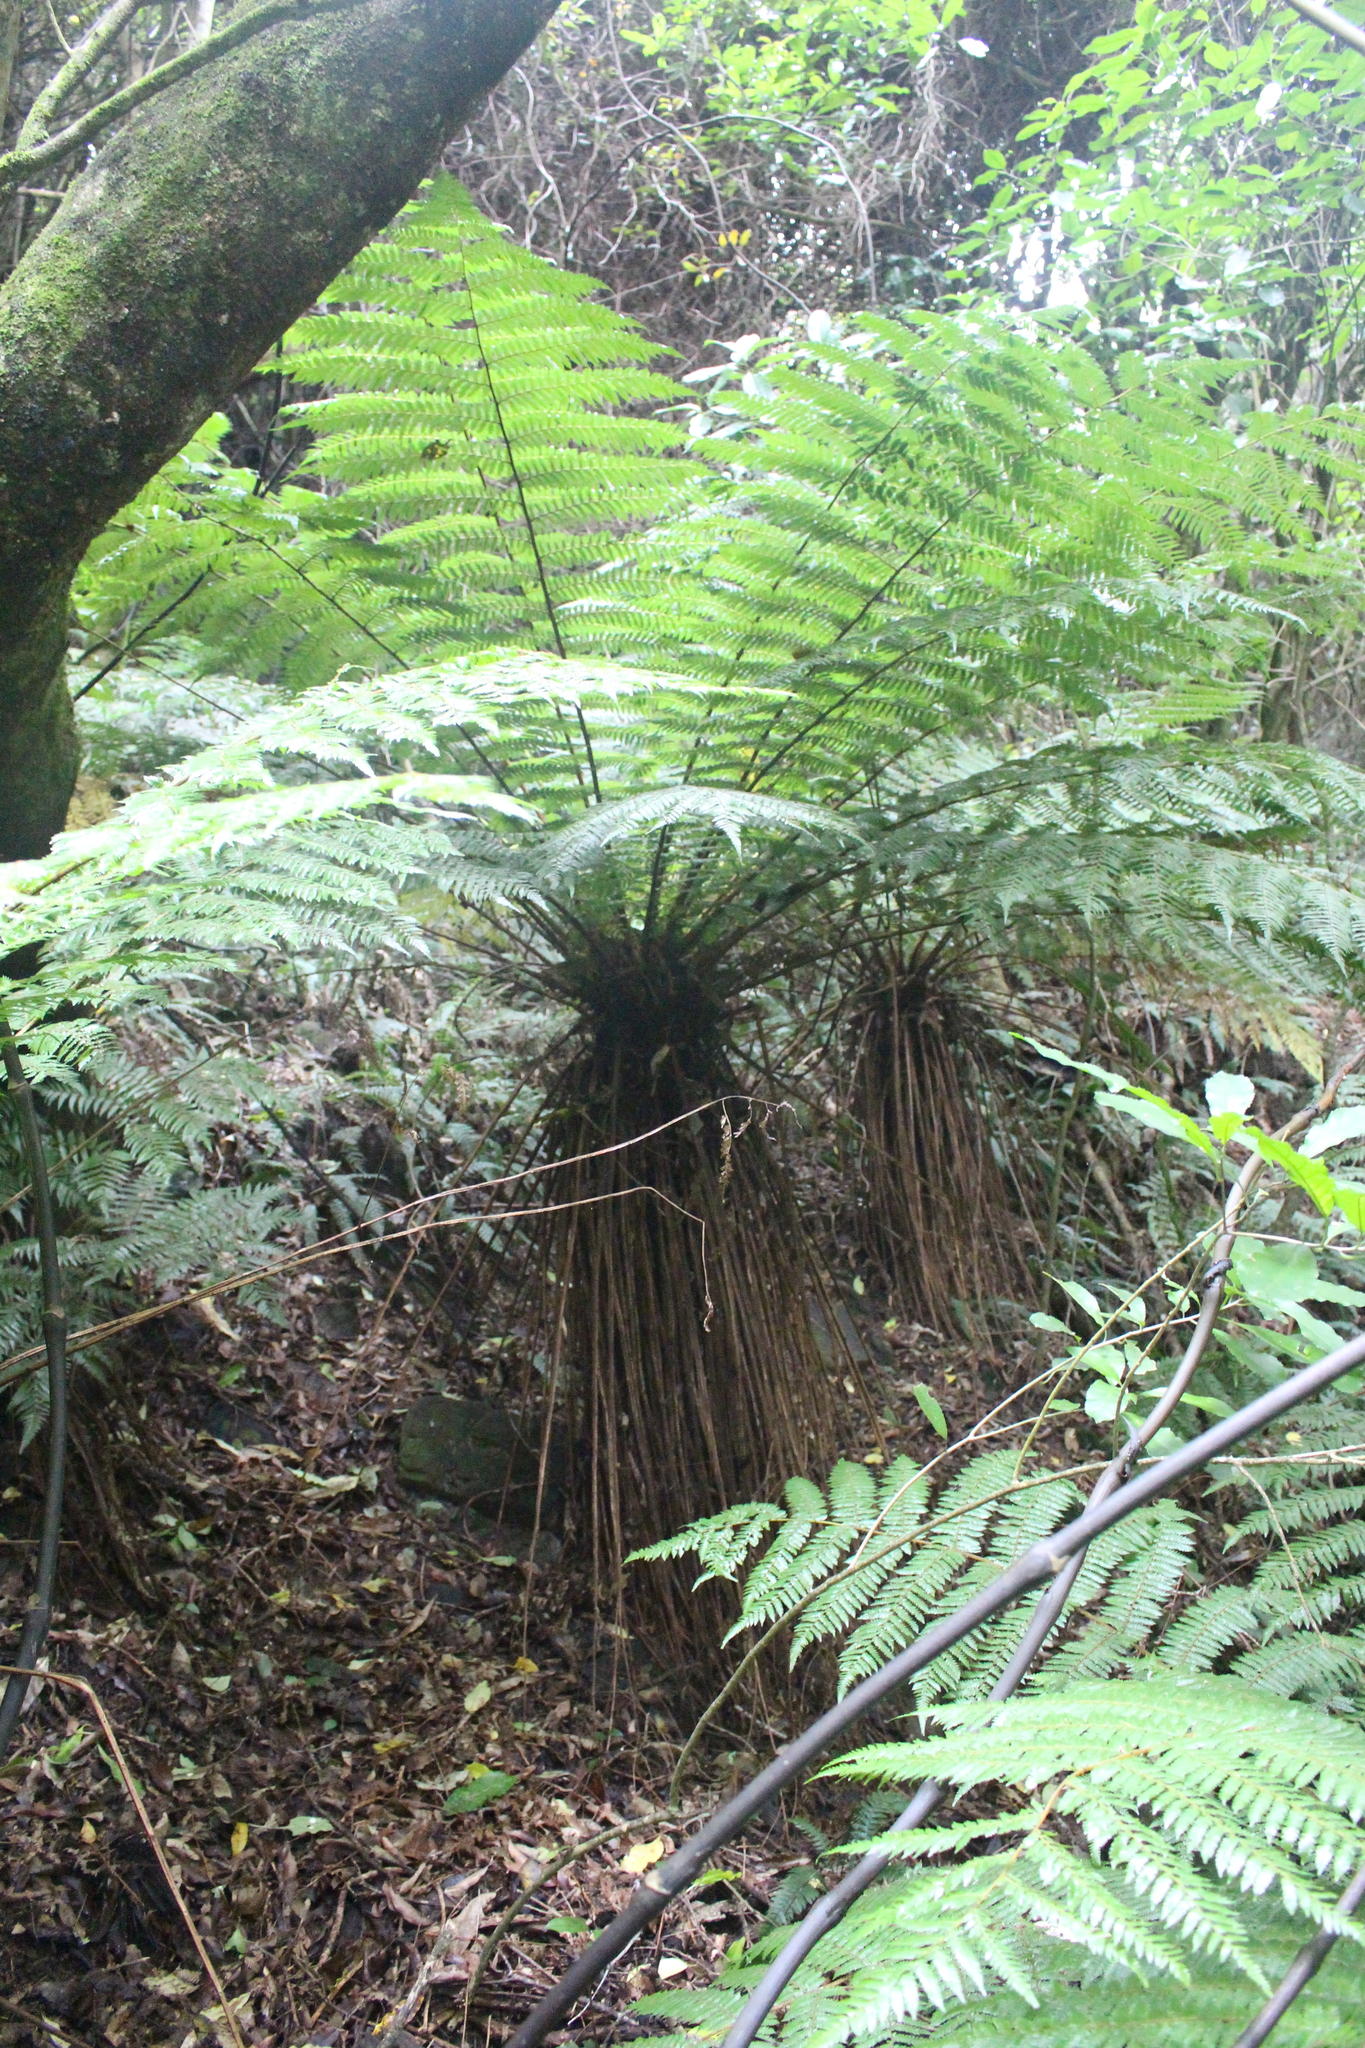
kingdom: Plantae
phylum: Tracheophyta
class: Polypodiopsida
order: Cyatheales
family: Cyatheaceae
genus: Alsophila
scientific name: Alsophila smithii
